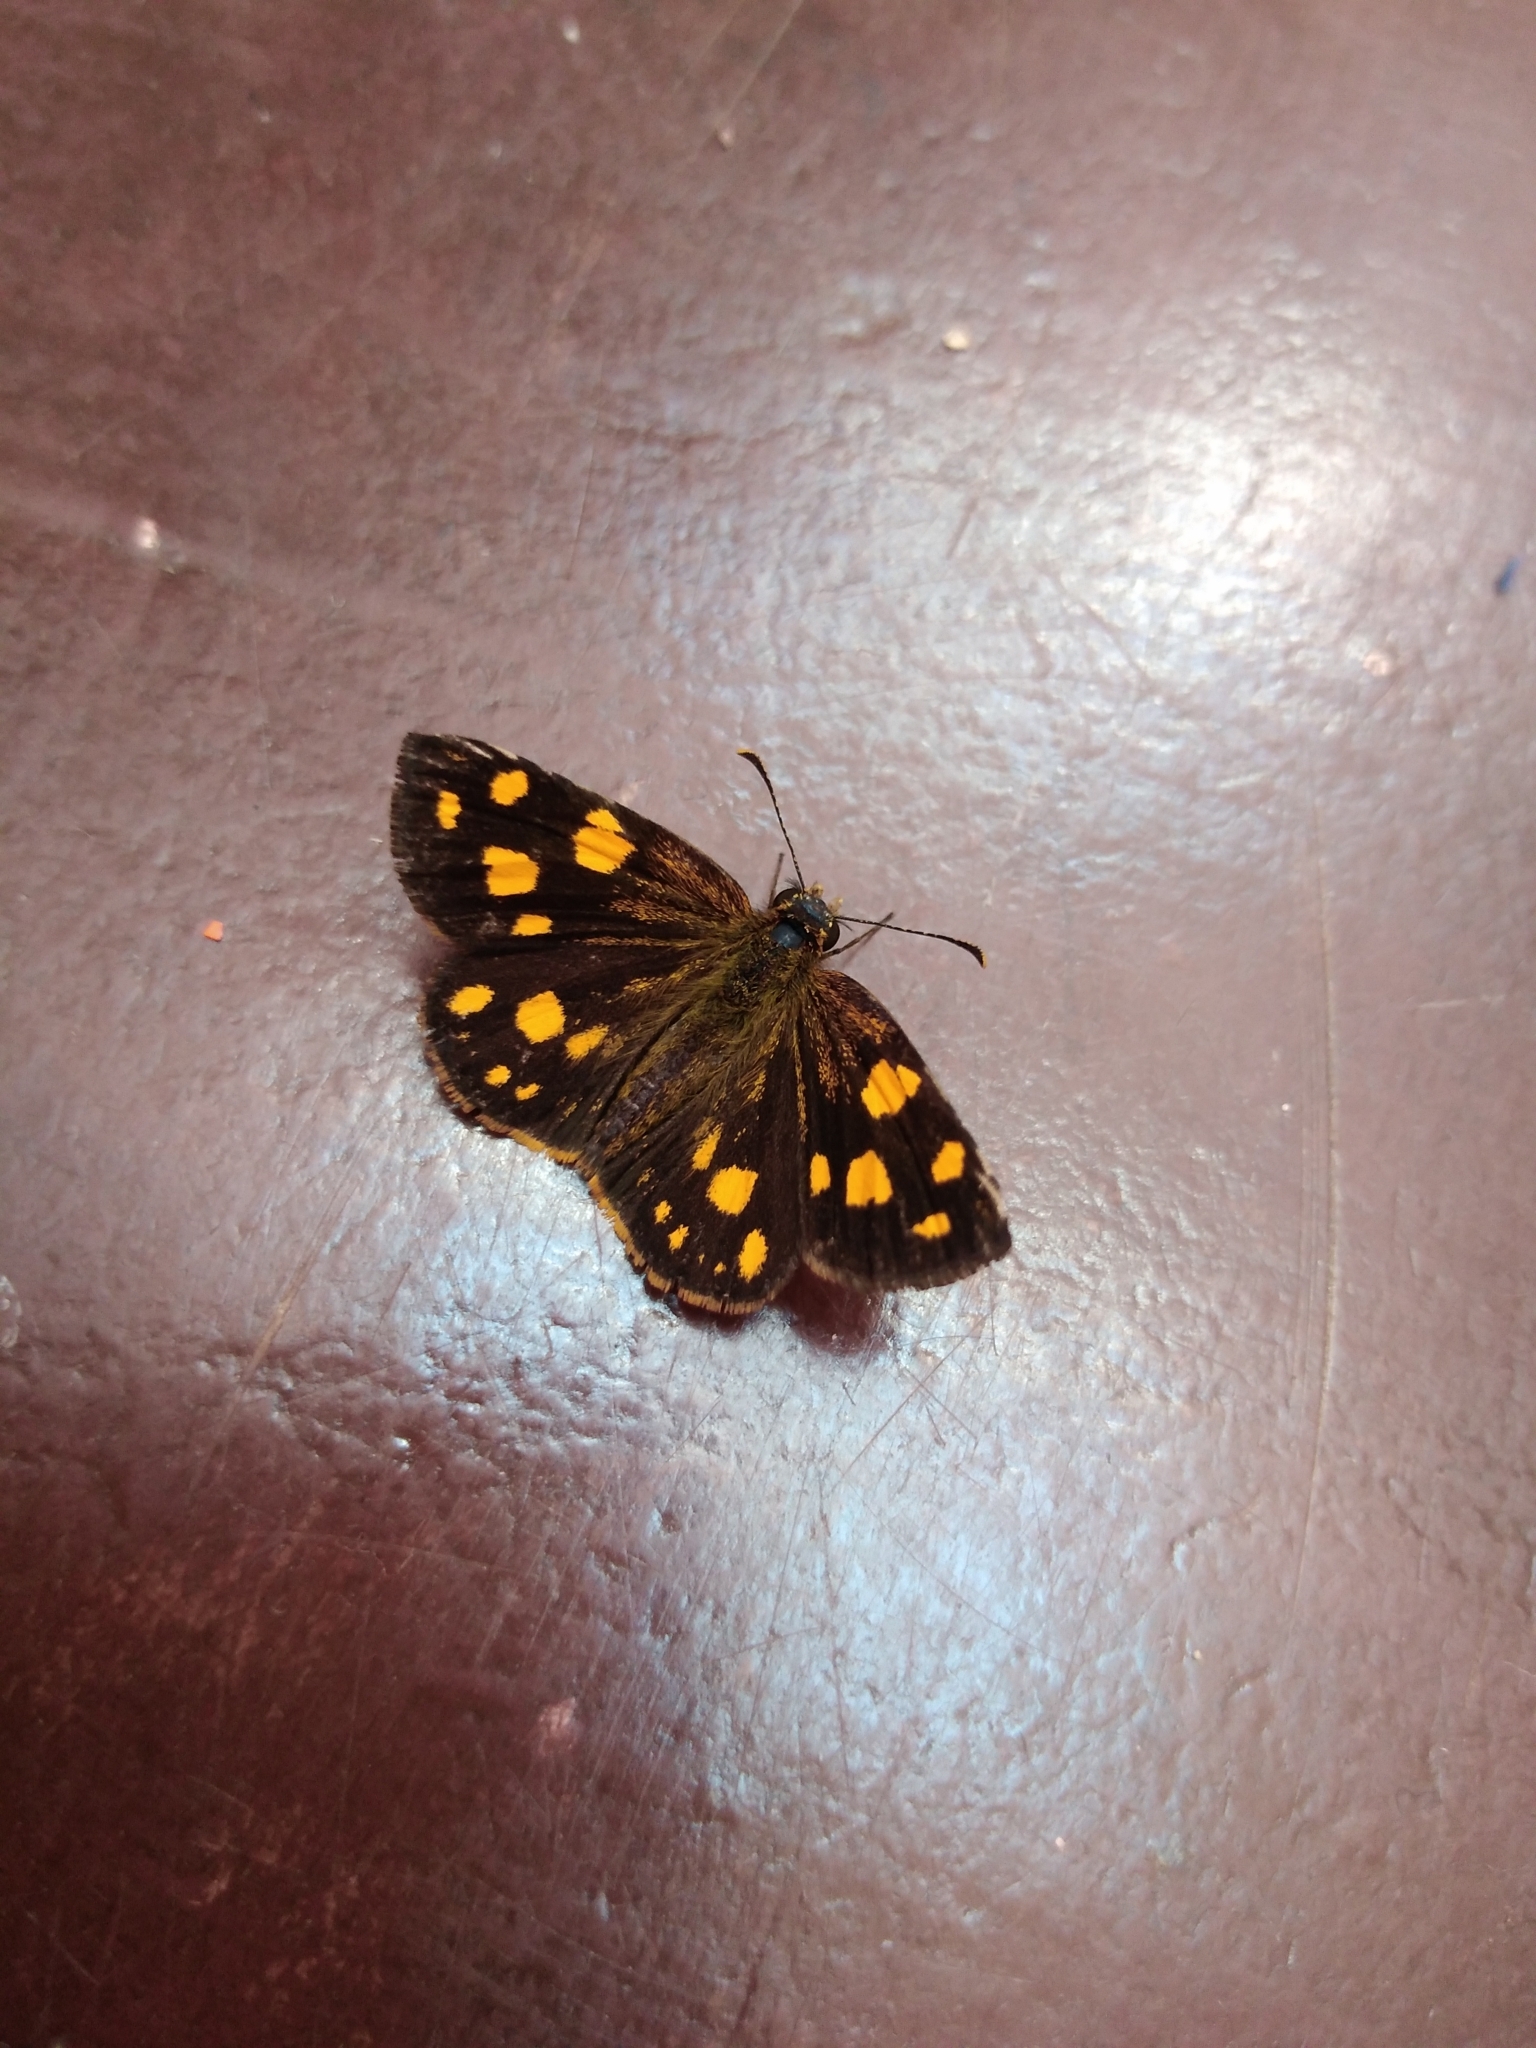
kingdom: Animalia
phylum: Arthropoda
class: Insecta
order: Lepidoptera
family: Hesperiidae
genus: Metisella
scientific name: Metisella metis
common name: Western gold-spotted sylph
